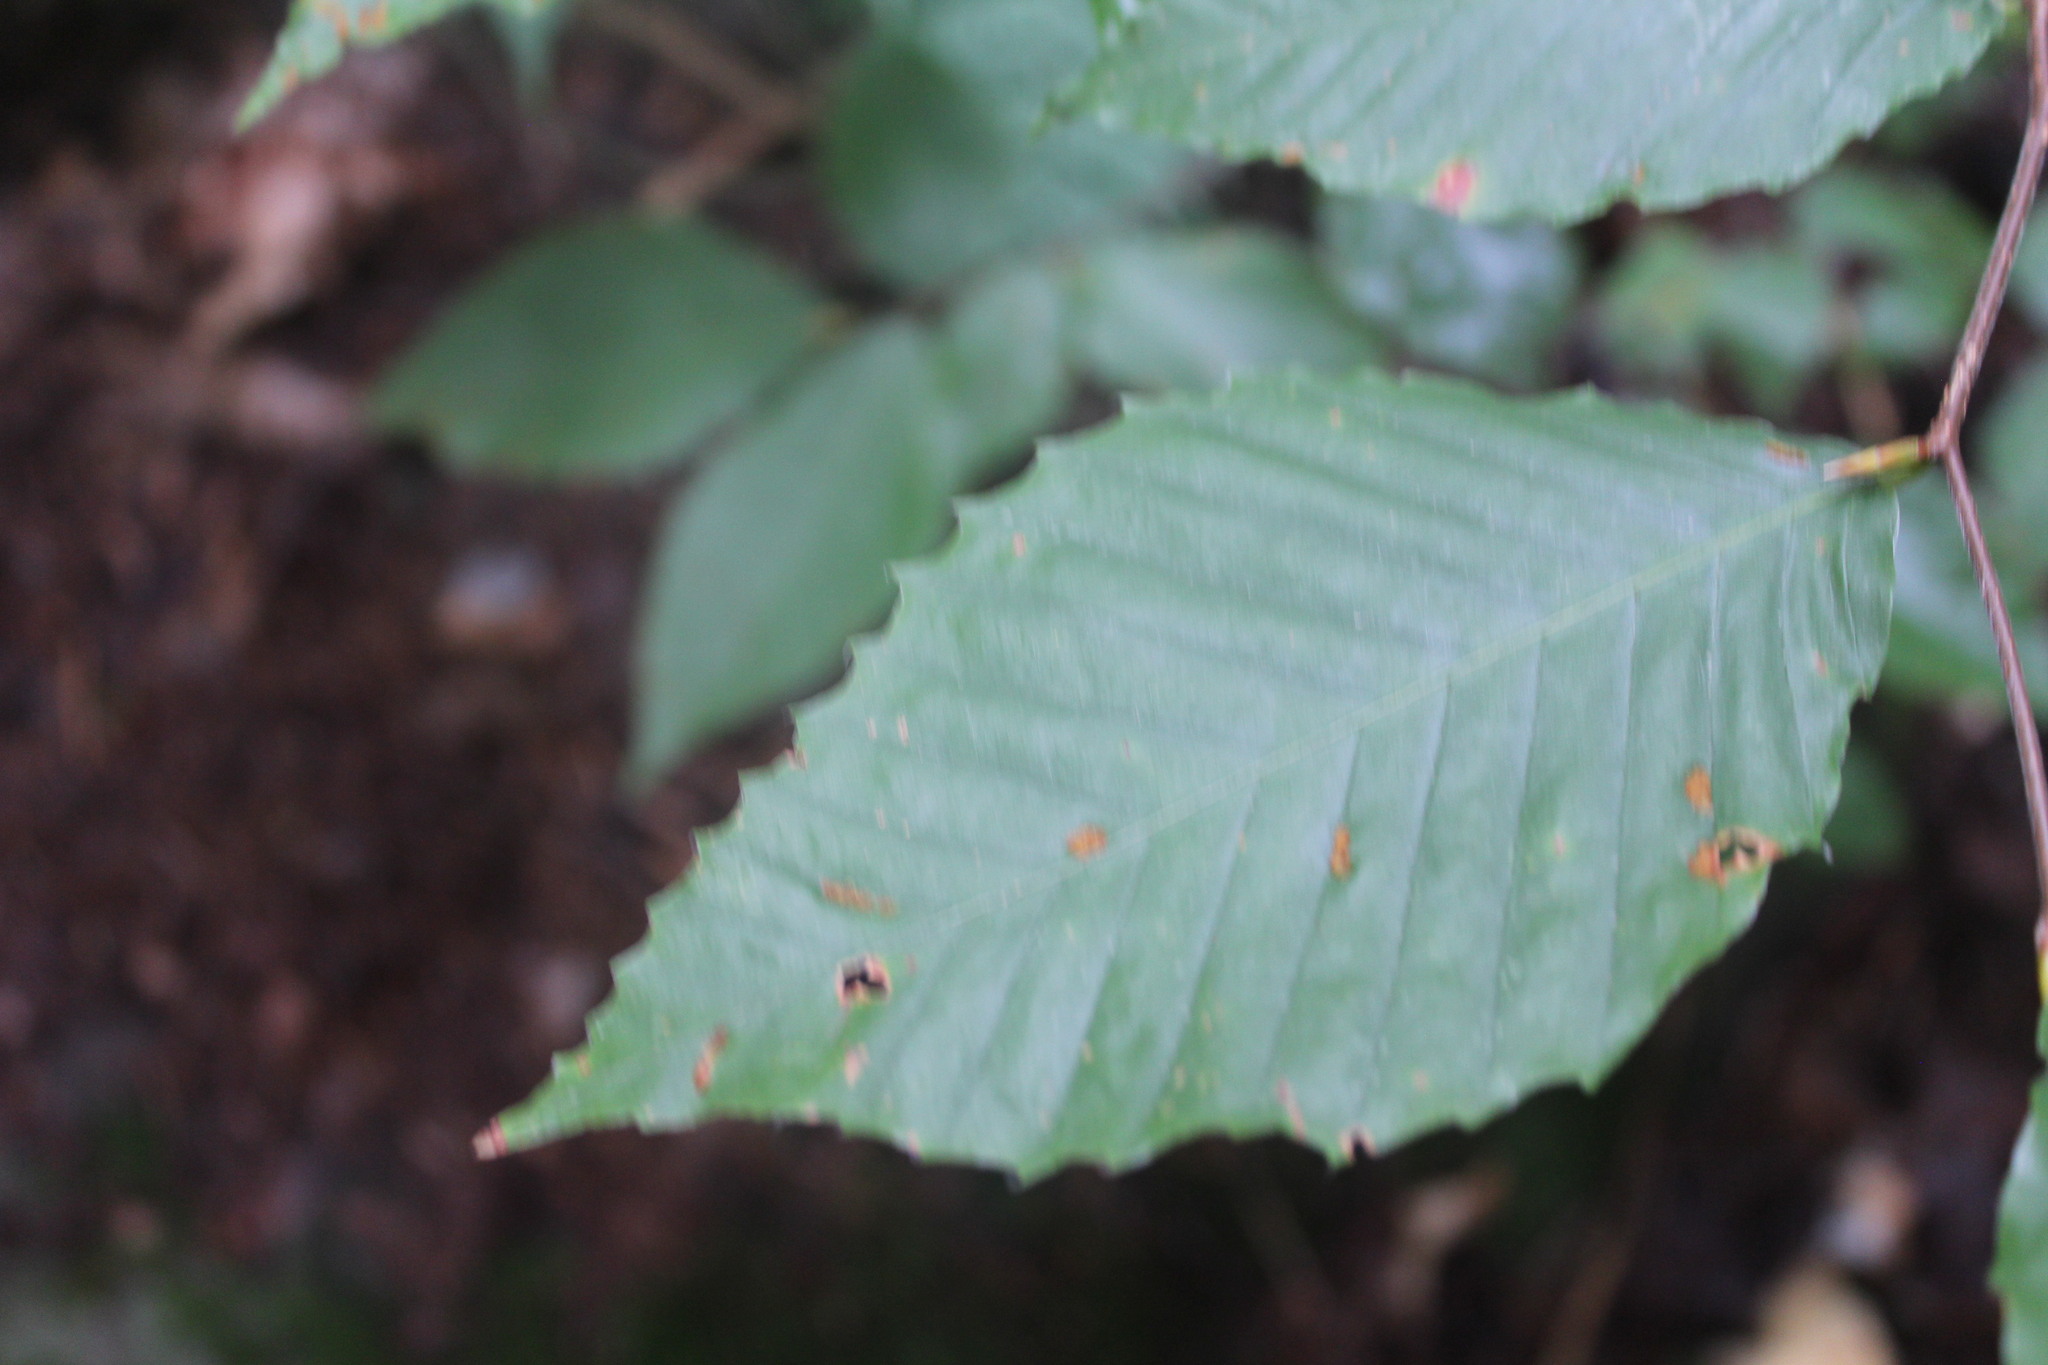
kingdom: Plantae
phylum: Tracheophyta
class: Magnoliopsida
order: Fagales
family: Fagaceae
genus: Fagus
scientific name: Fagus grandifolia
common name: American beech
